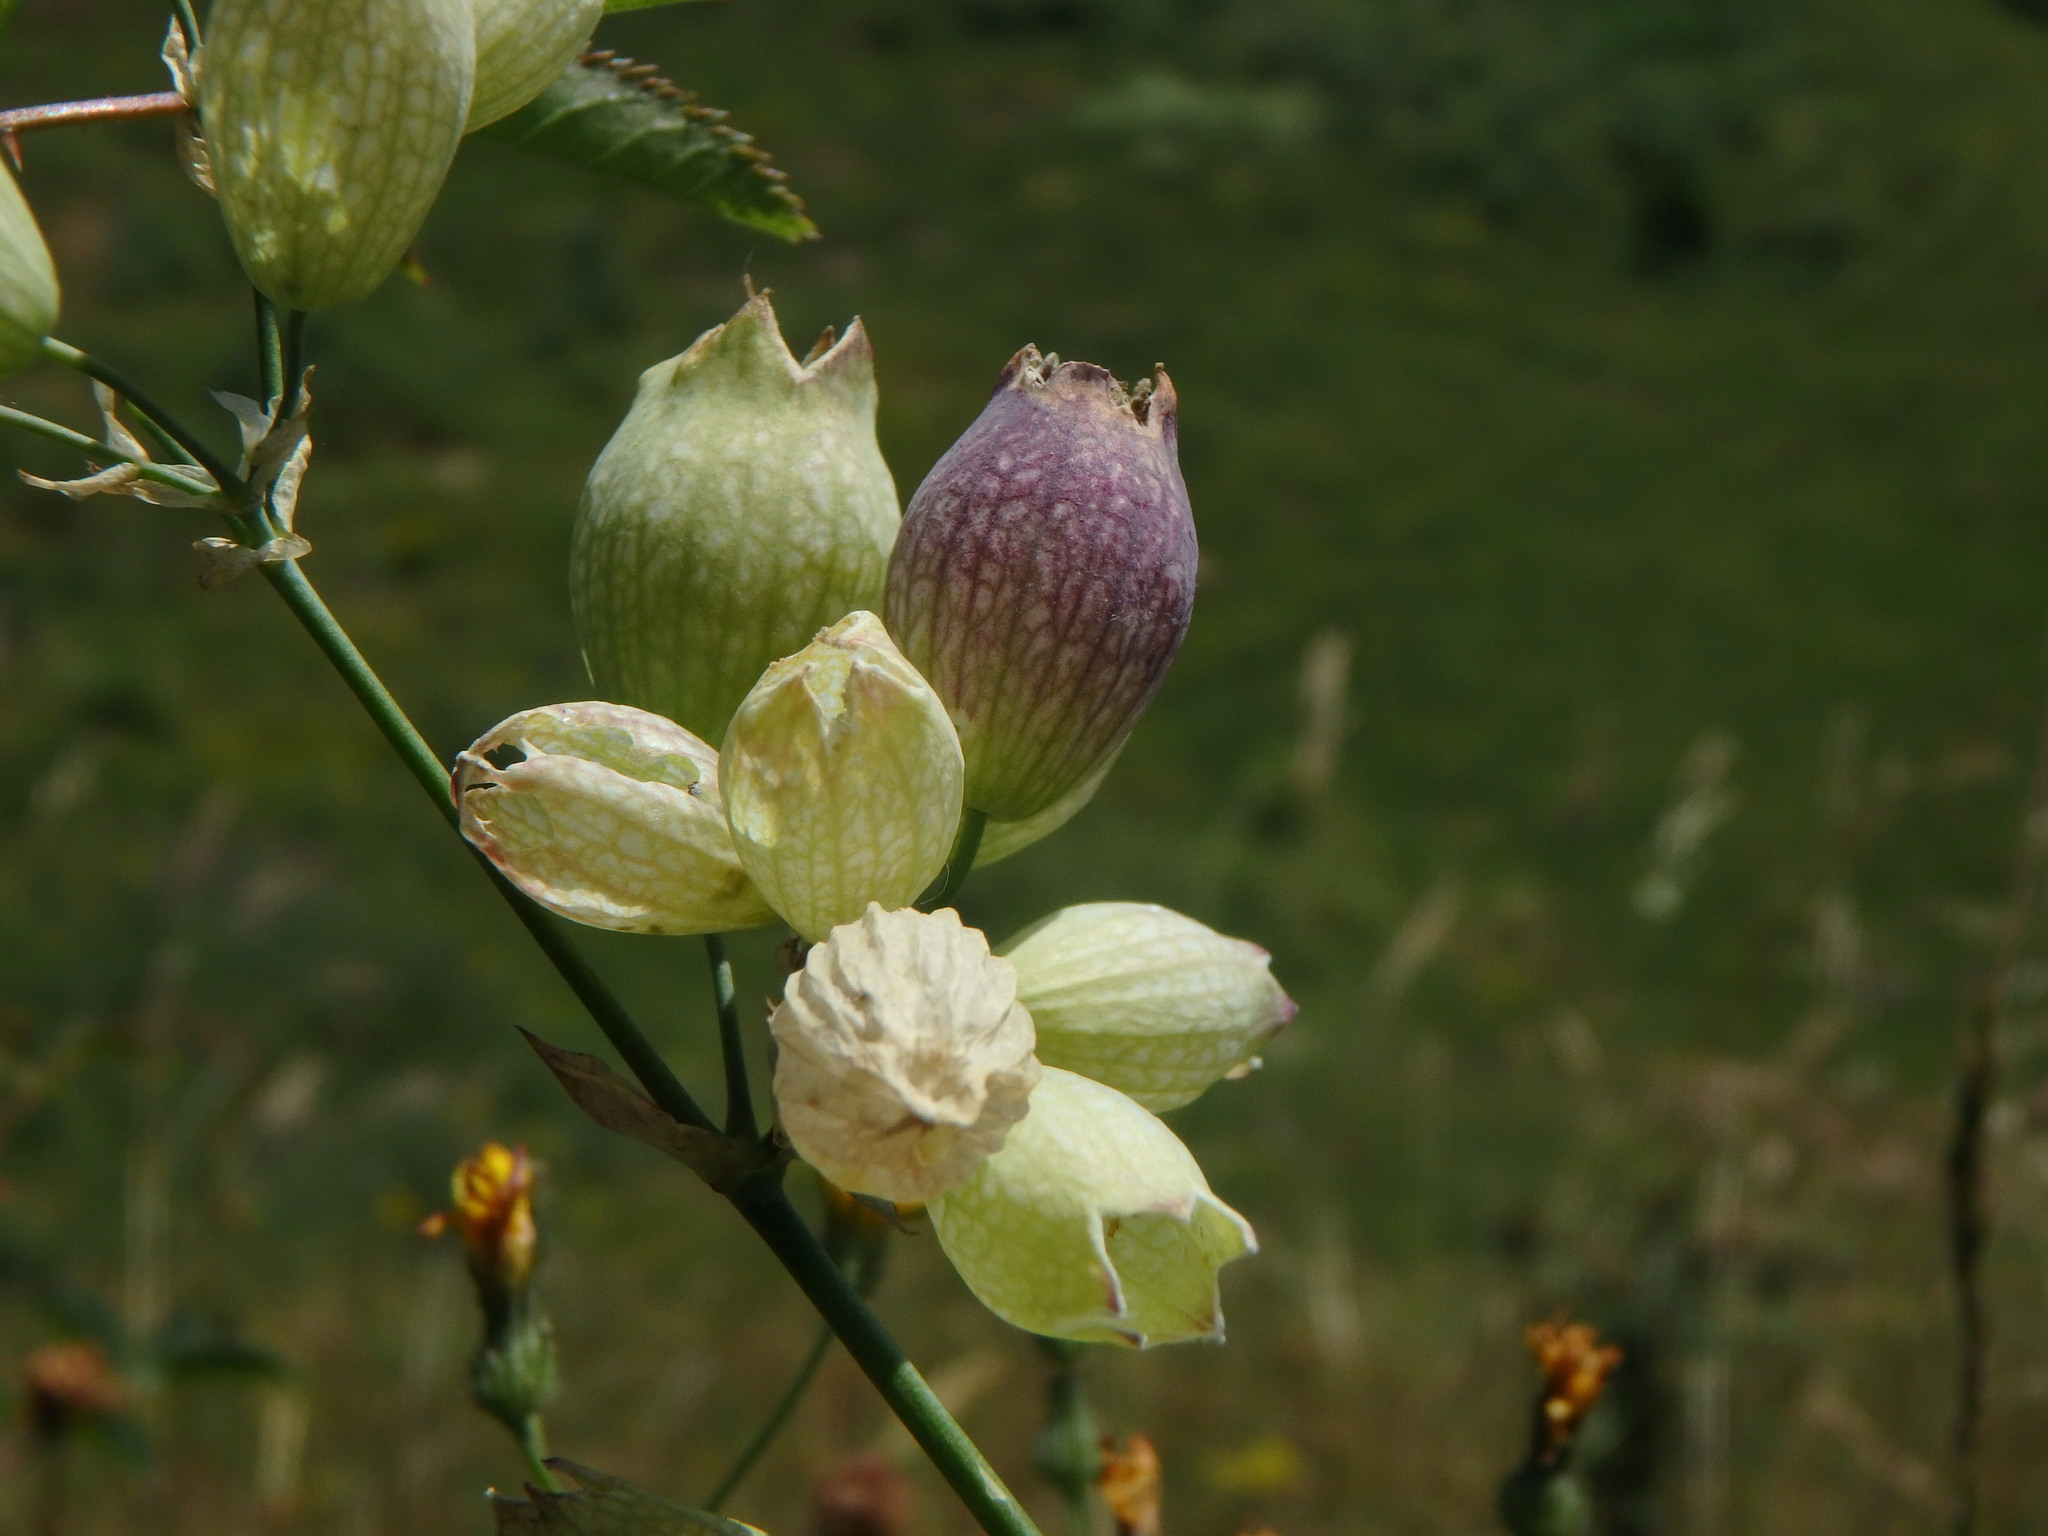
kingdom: Plantae
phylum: Tracheophyta
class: Magnoliopsida
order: Caryophyllales
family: Caryophyllaceae
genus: Silene
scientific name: Silene vulgaris
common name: Bladder campion
